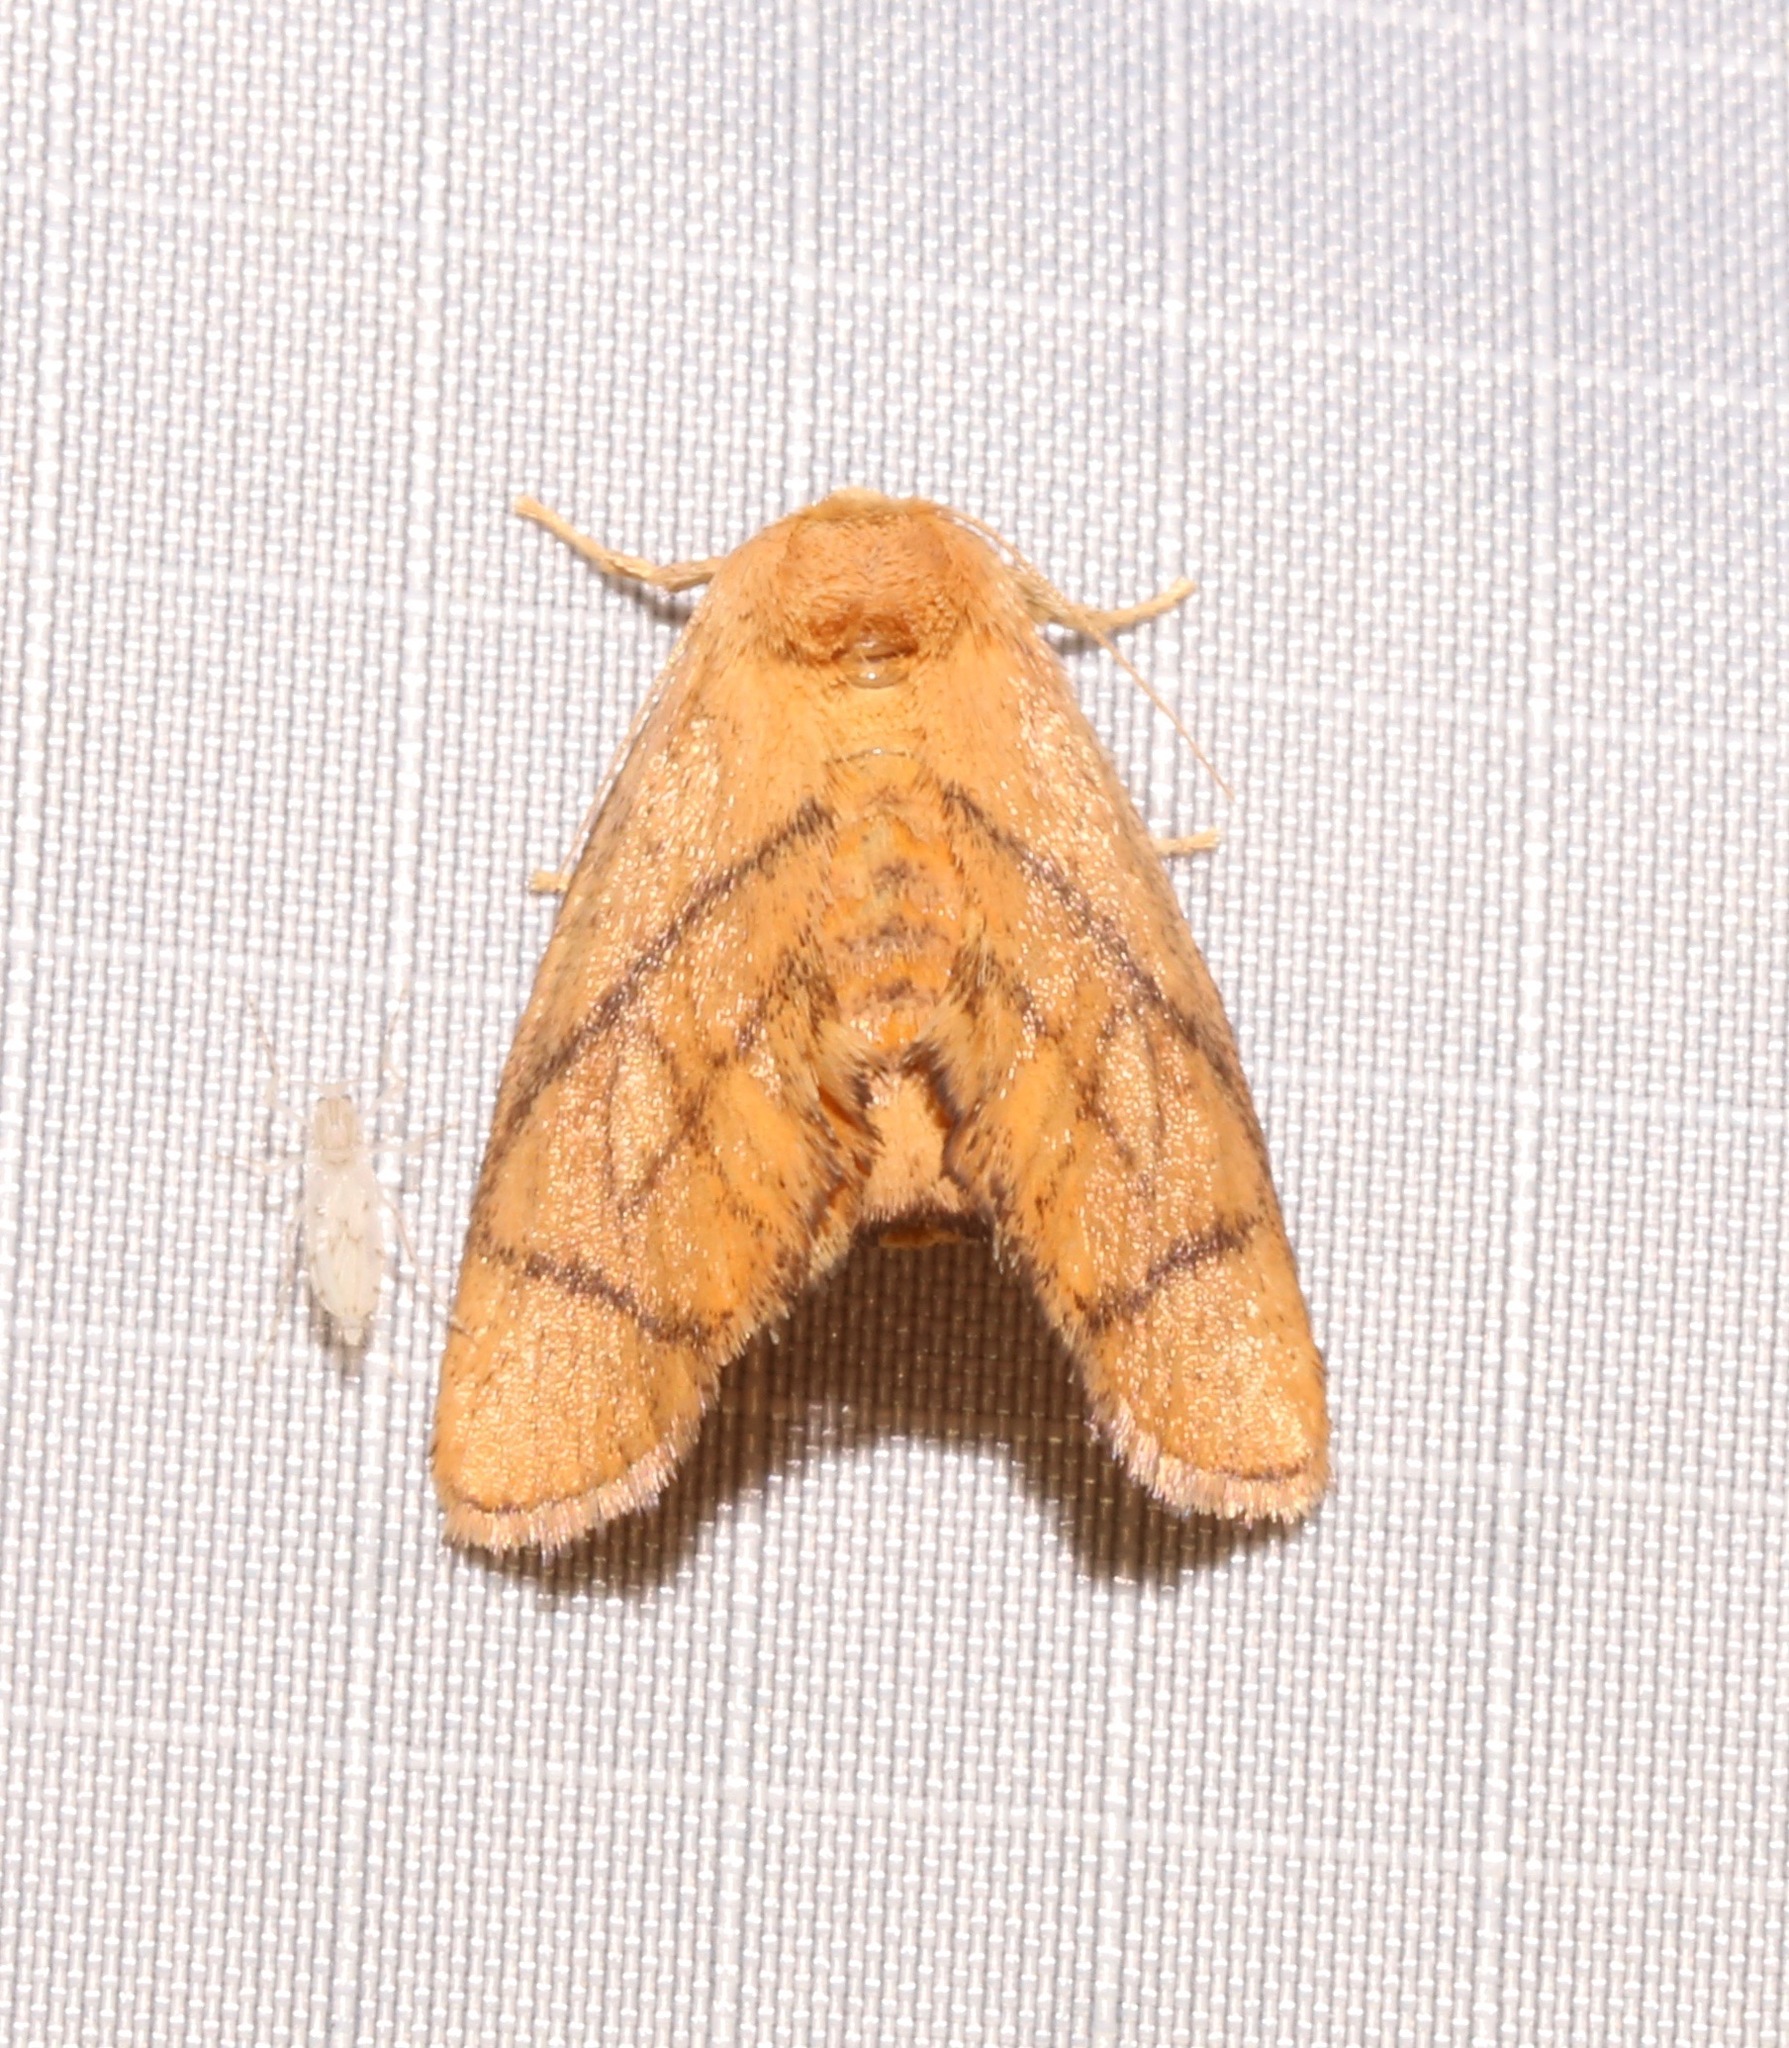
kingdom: Animalia
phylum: Arthropoda
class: Insecta
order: Lepidoptera
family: Limacodidae
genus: Apoda
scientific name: Apoda y-inversa
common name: Yellow-collared slug moth
